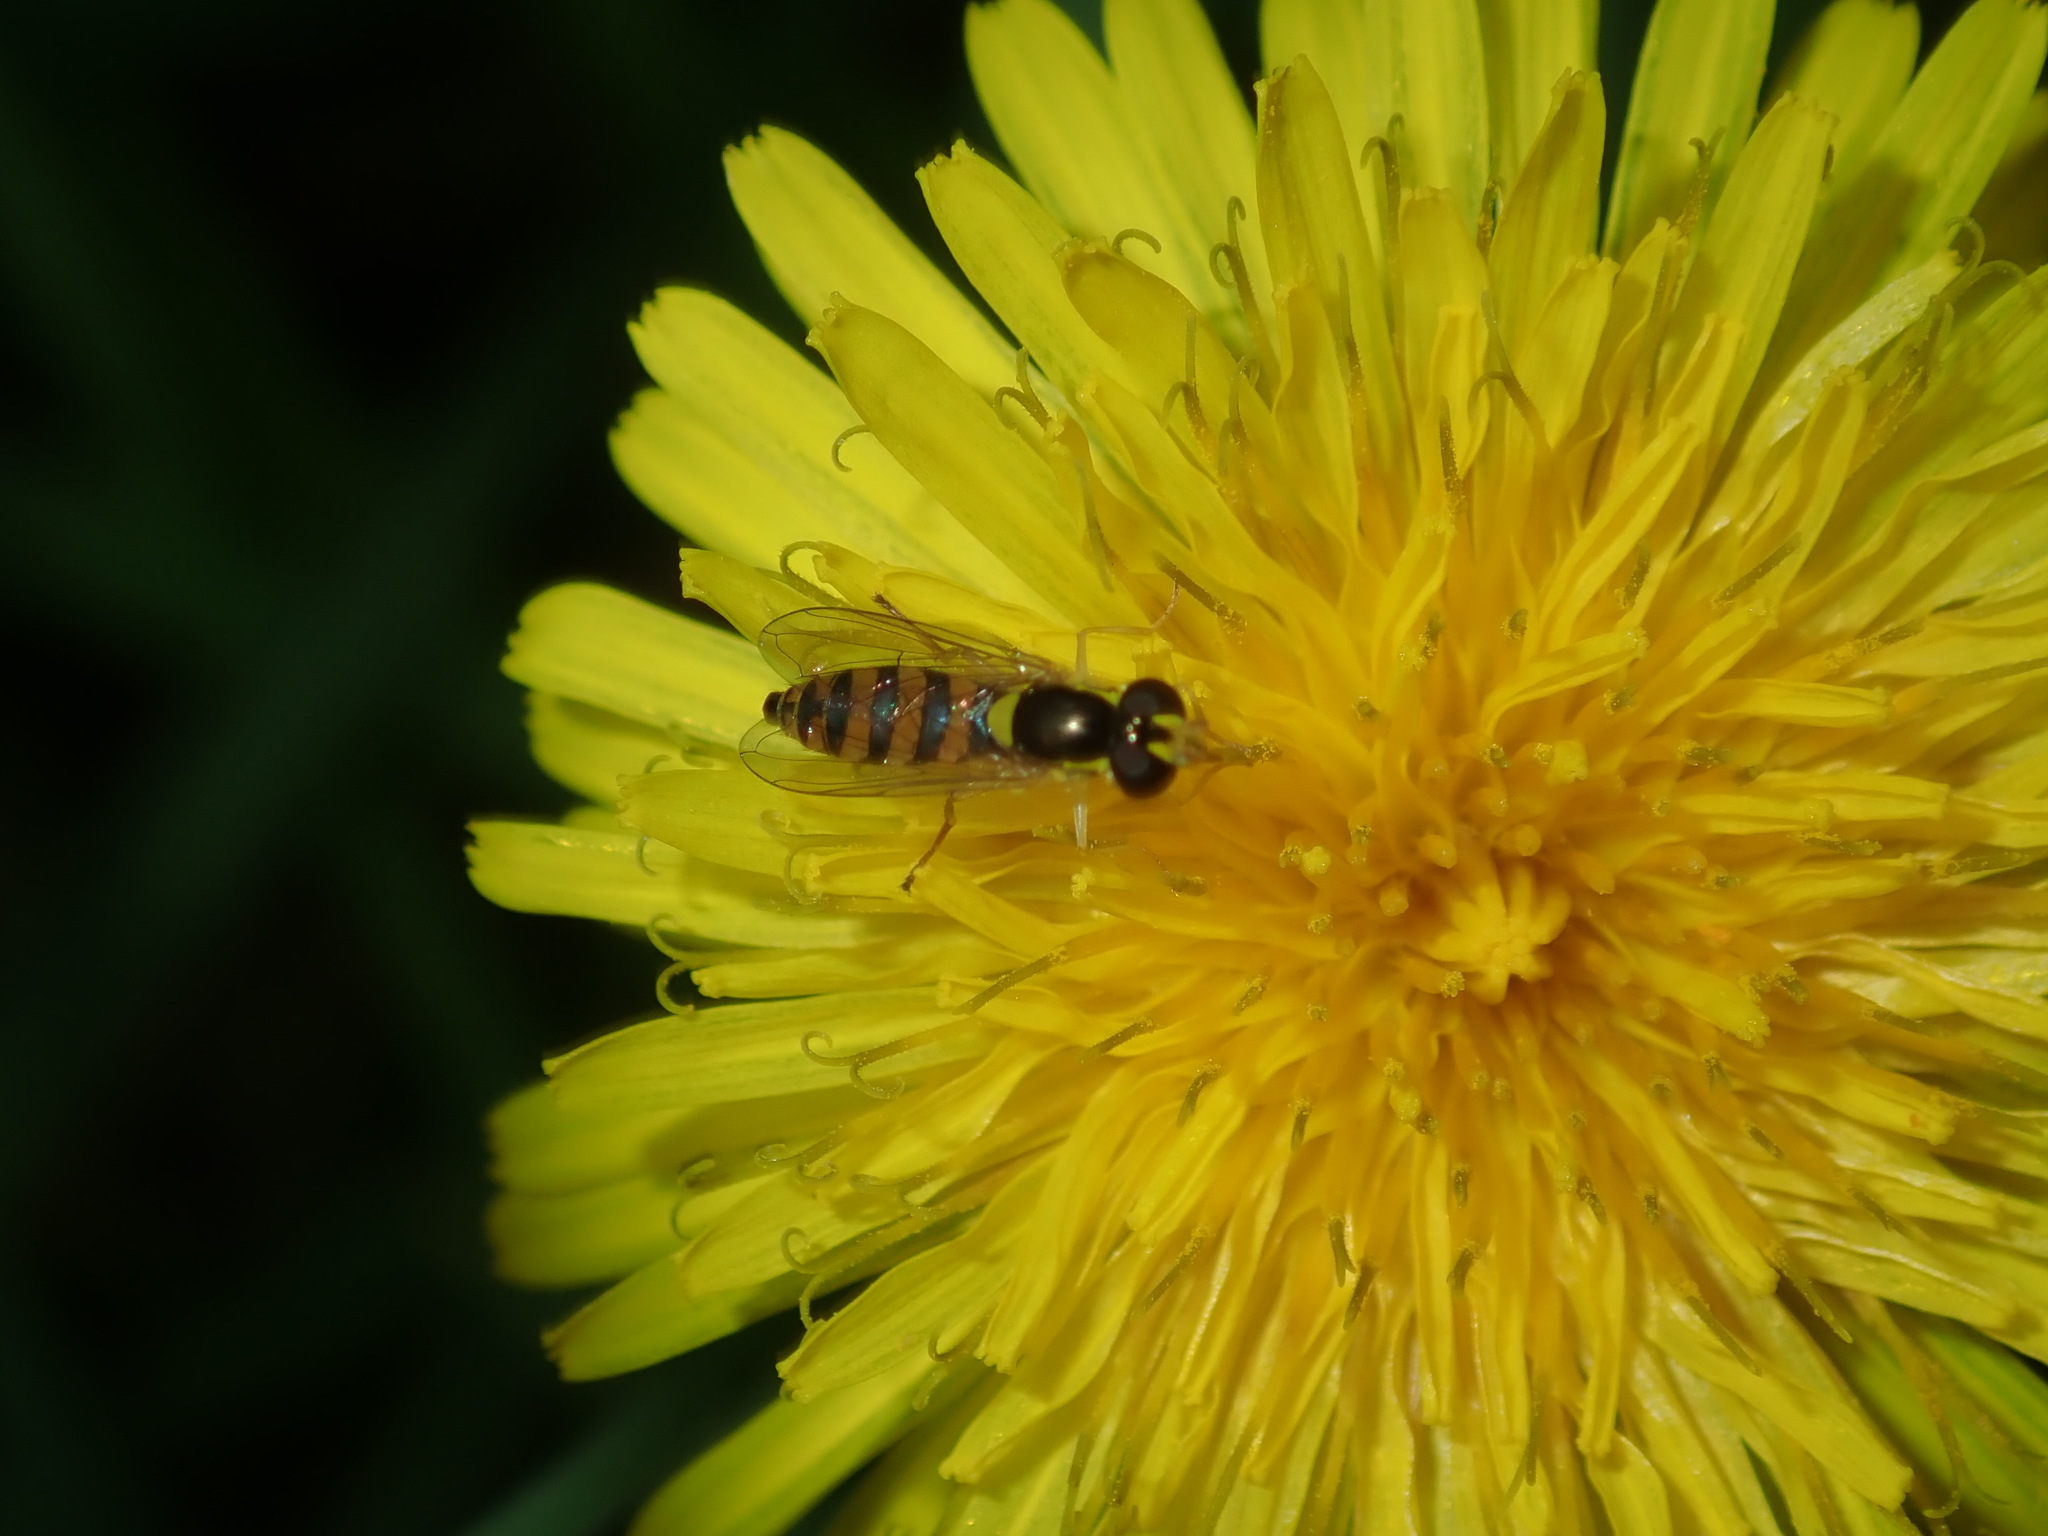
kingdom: Animalia
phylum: Arthropoda
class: Insecta
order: Diptera
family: Syrphidae
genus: Sphaerophoria
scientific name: Sphaerophoria macrogaster
